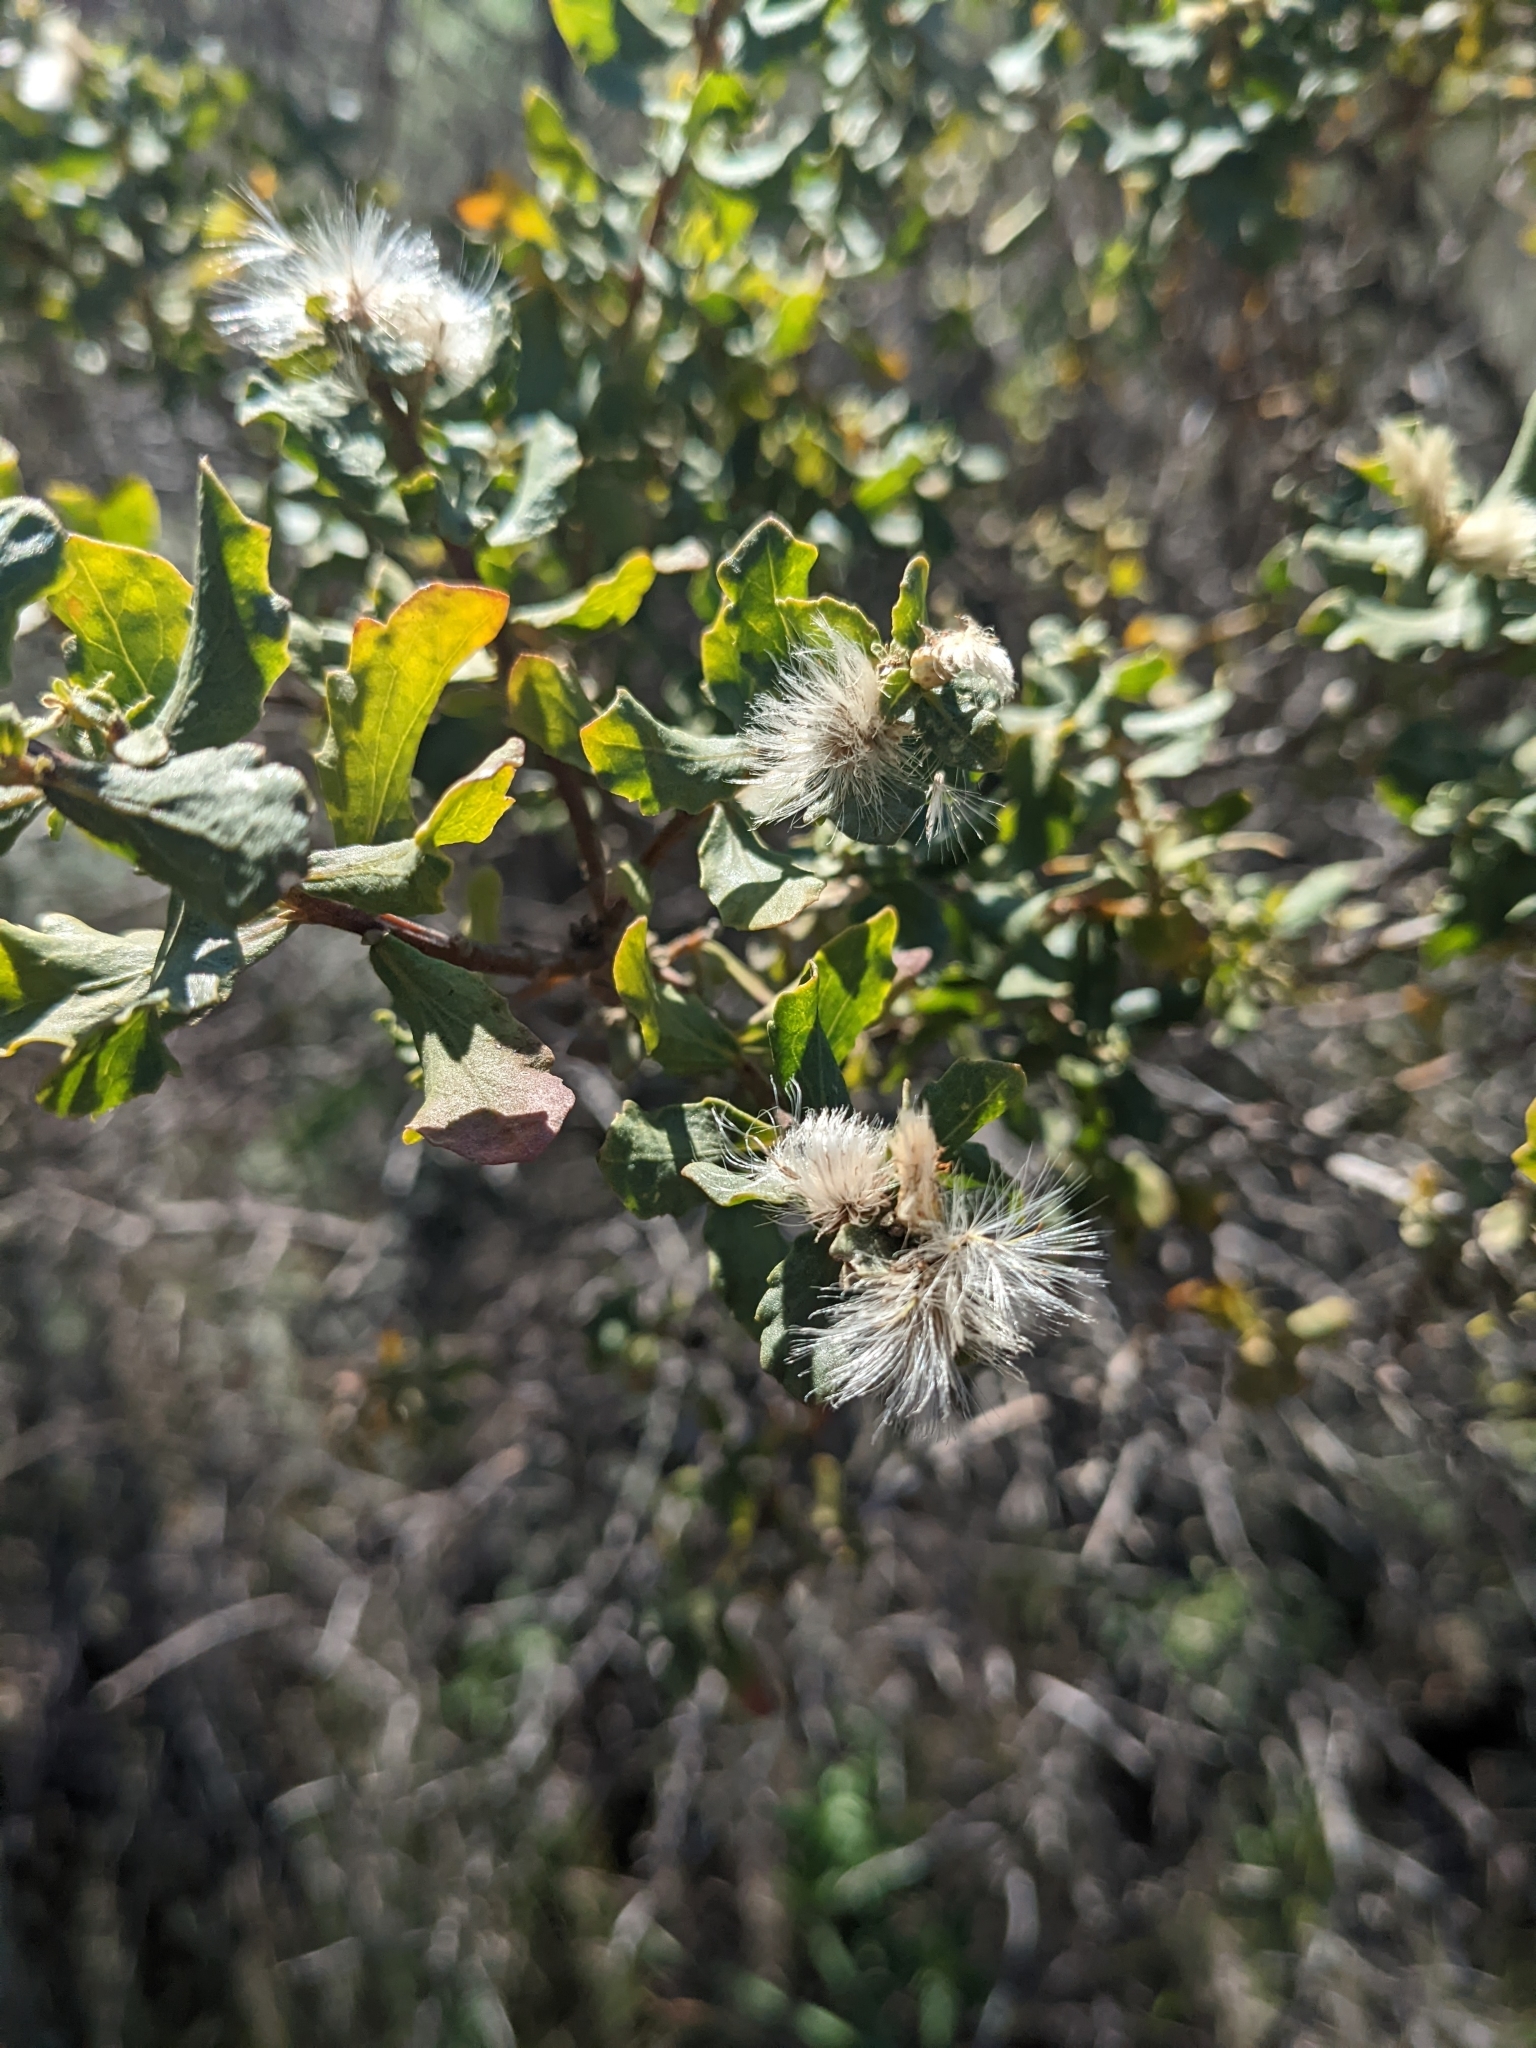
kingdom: Plantae
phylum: Tracheophyta
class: Magnoliopsida
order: Asterales
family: Asteraceae
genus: Baccharis
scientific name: Baccharis pilularis
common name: Coyotebrush
